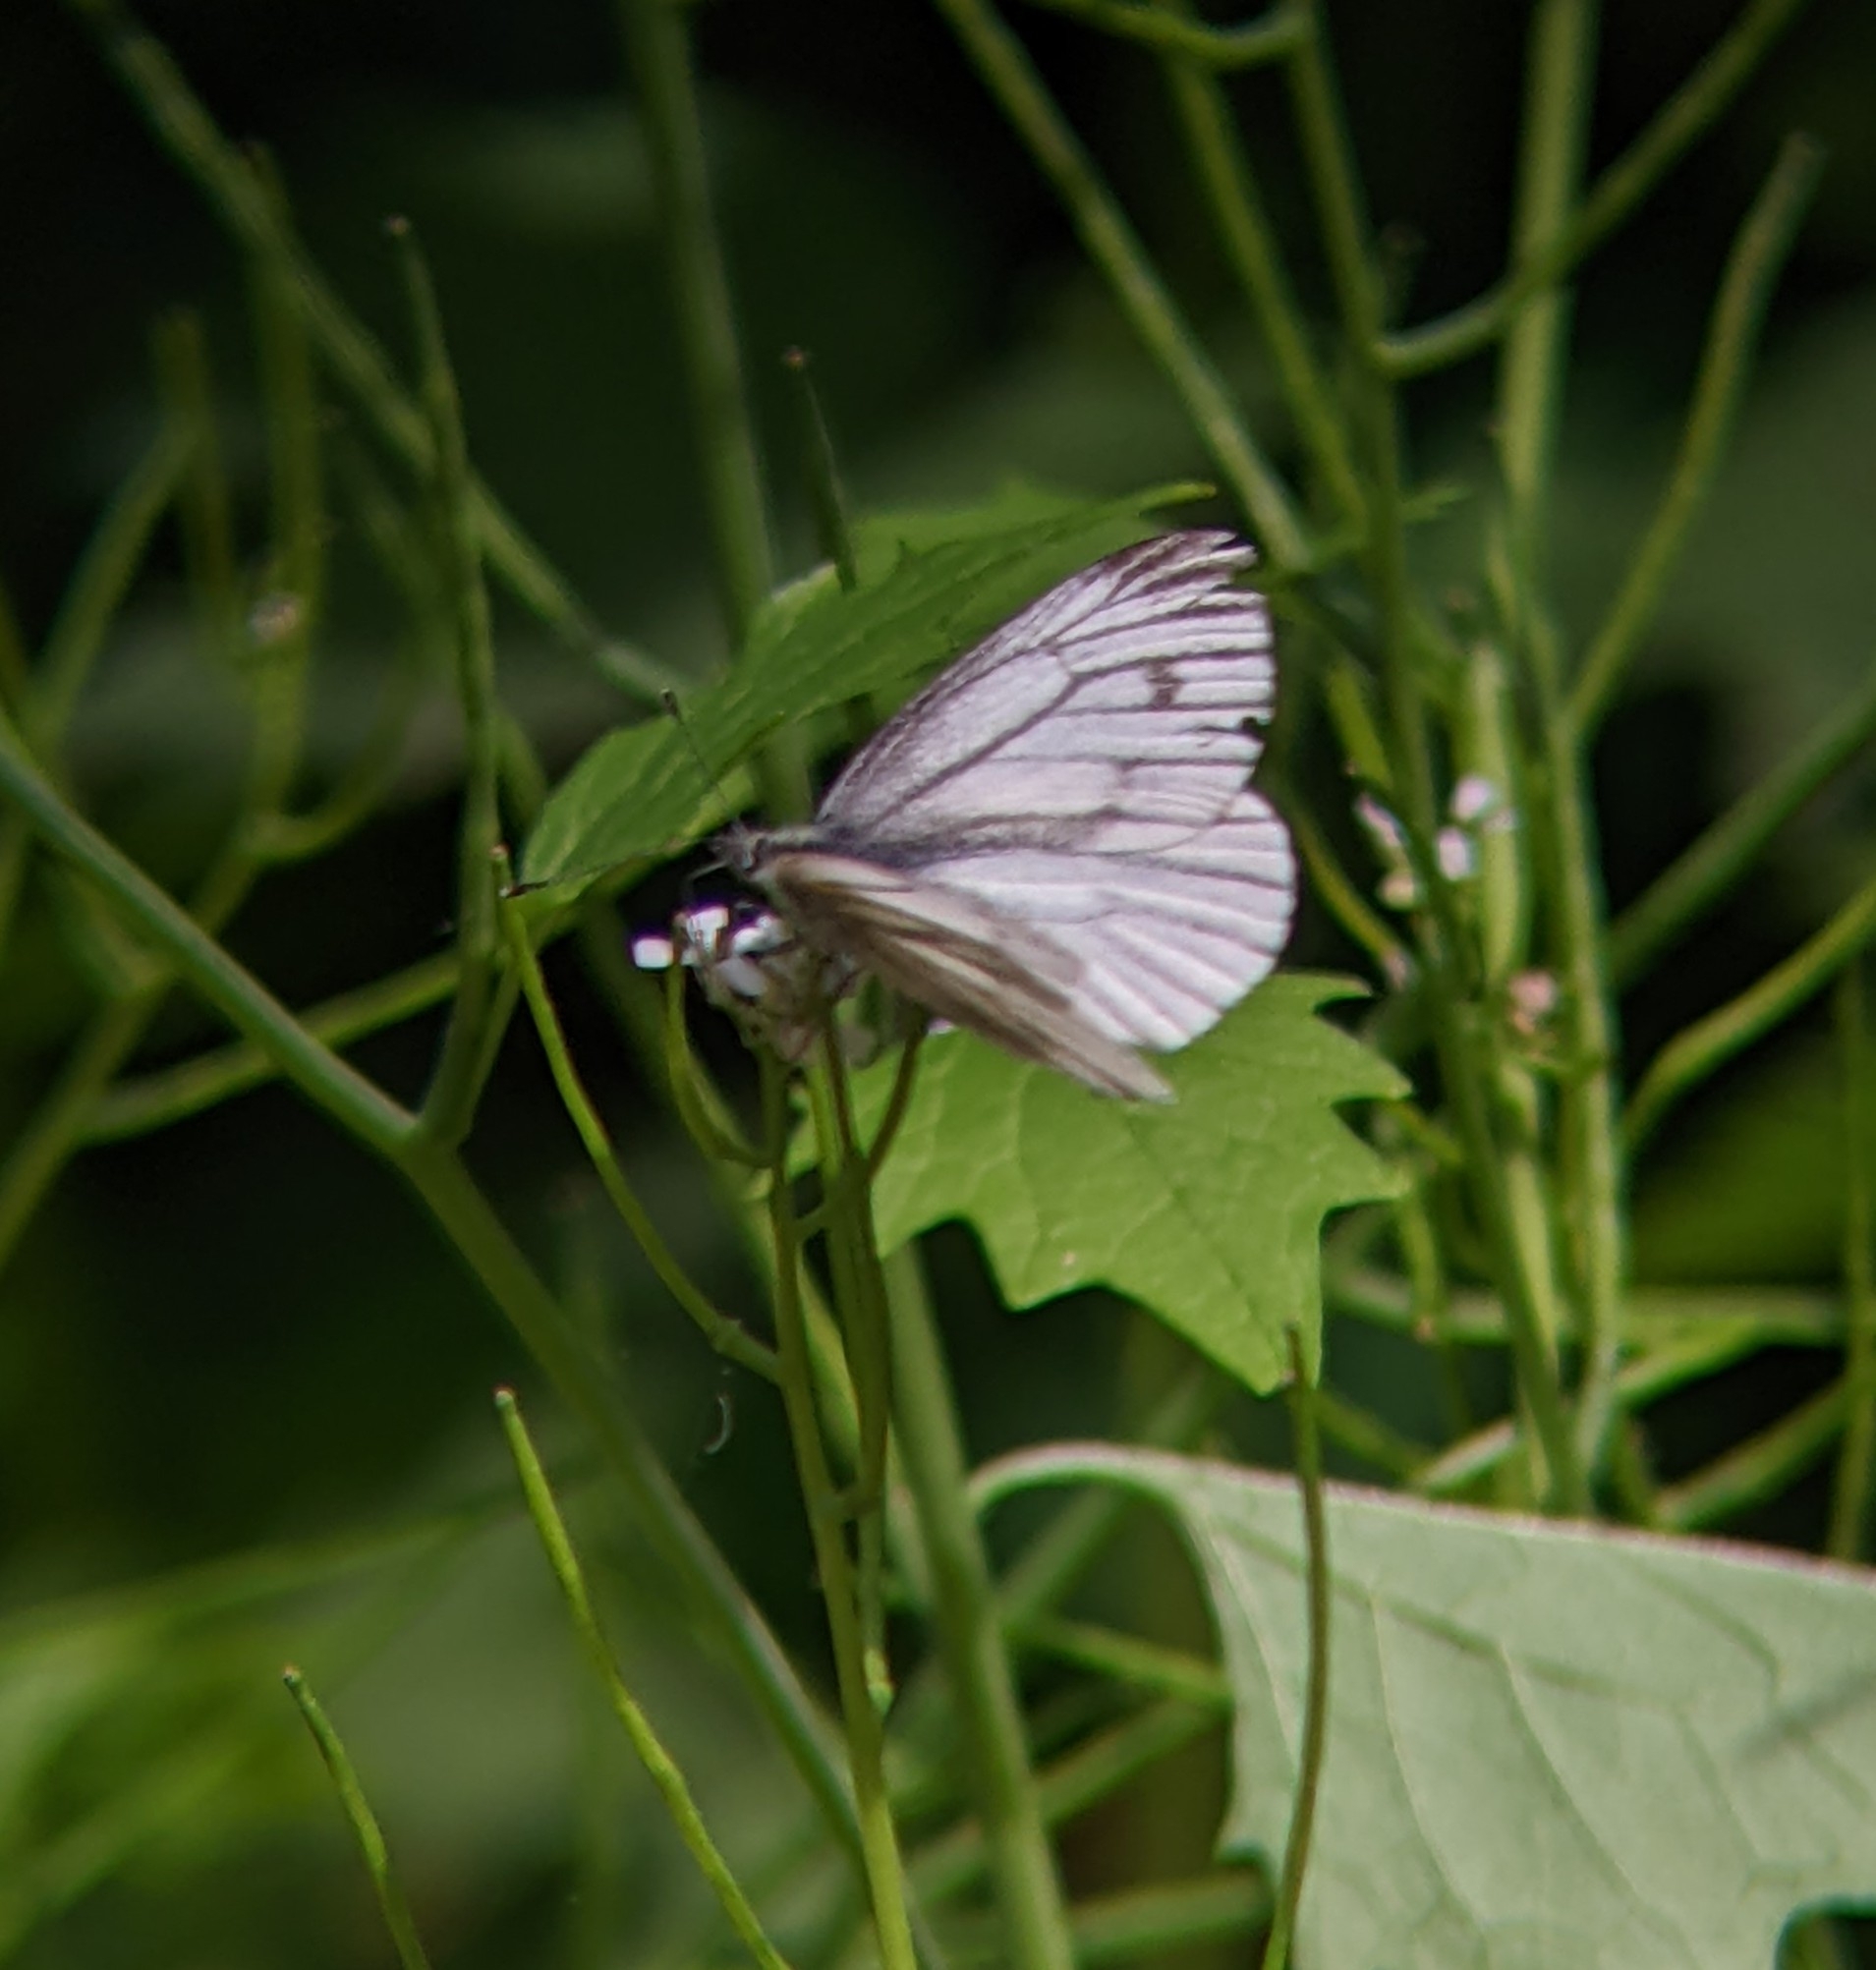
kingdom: Animalia
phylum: Arthropoda
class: Insecta
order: Lepidoptera
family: Pieridae
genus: Pieris
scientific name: Pieris napi
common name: Green-veined white
